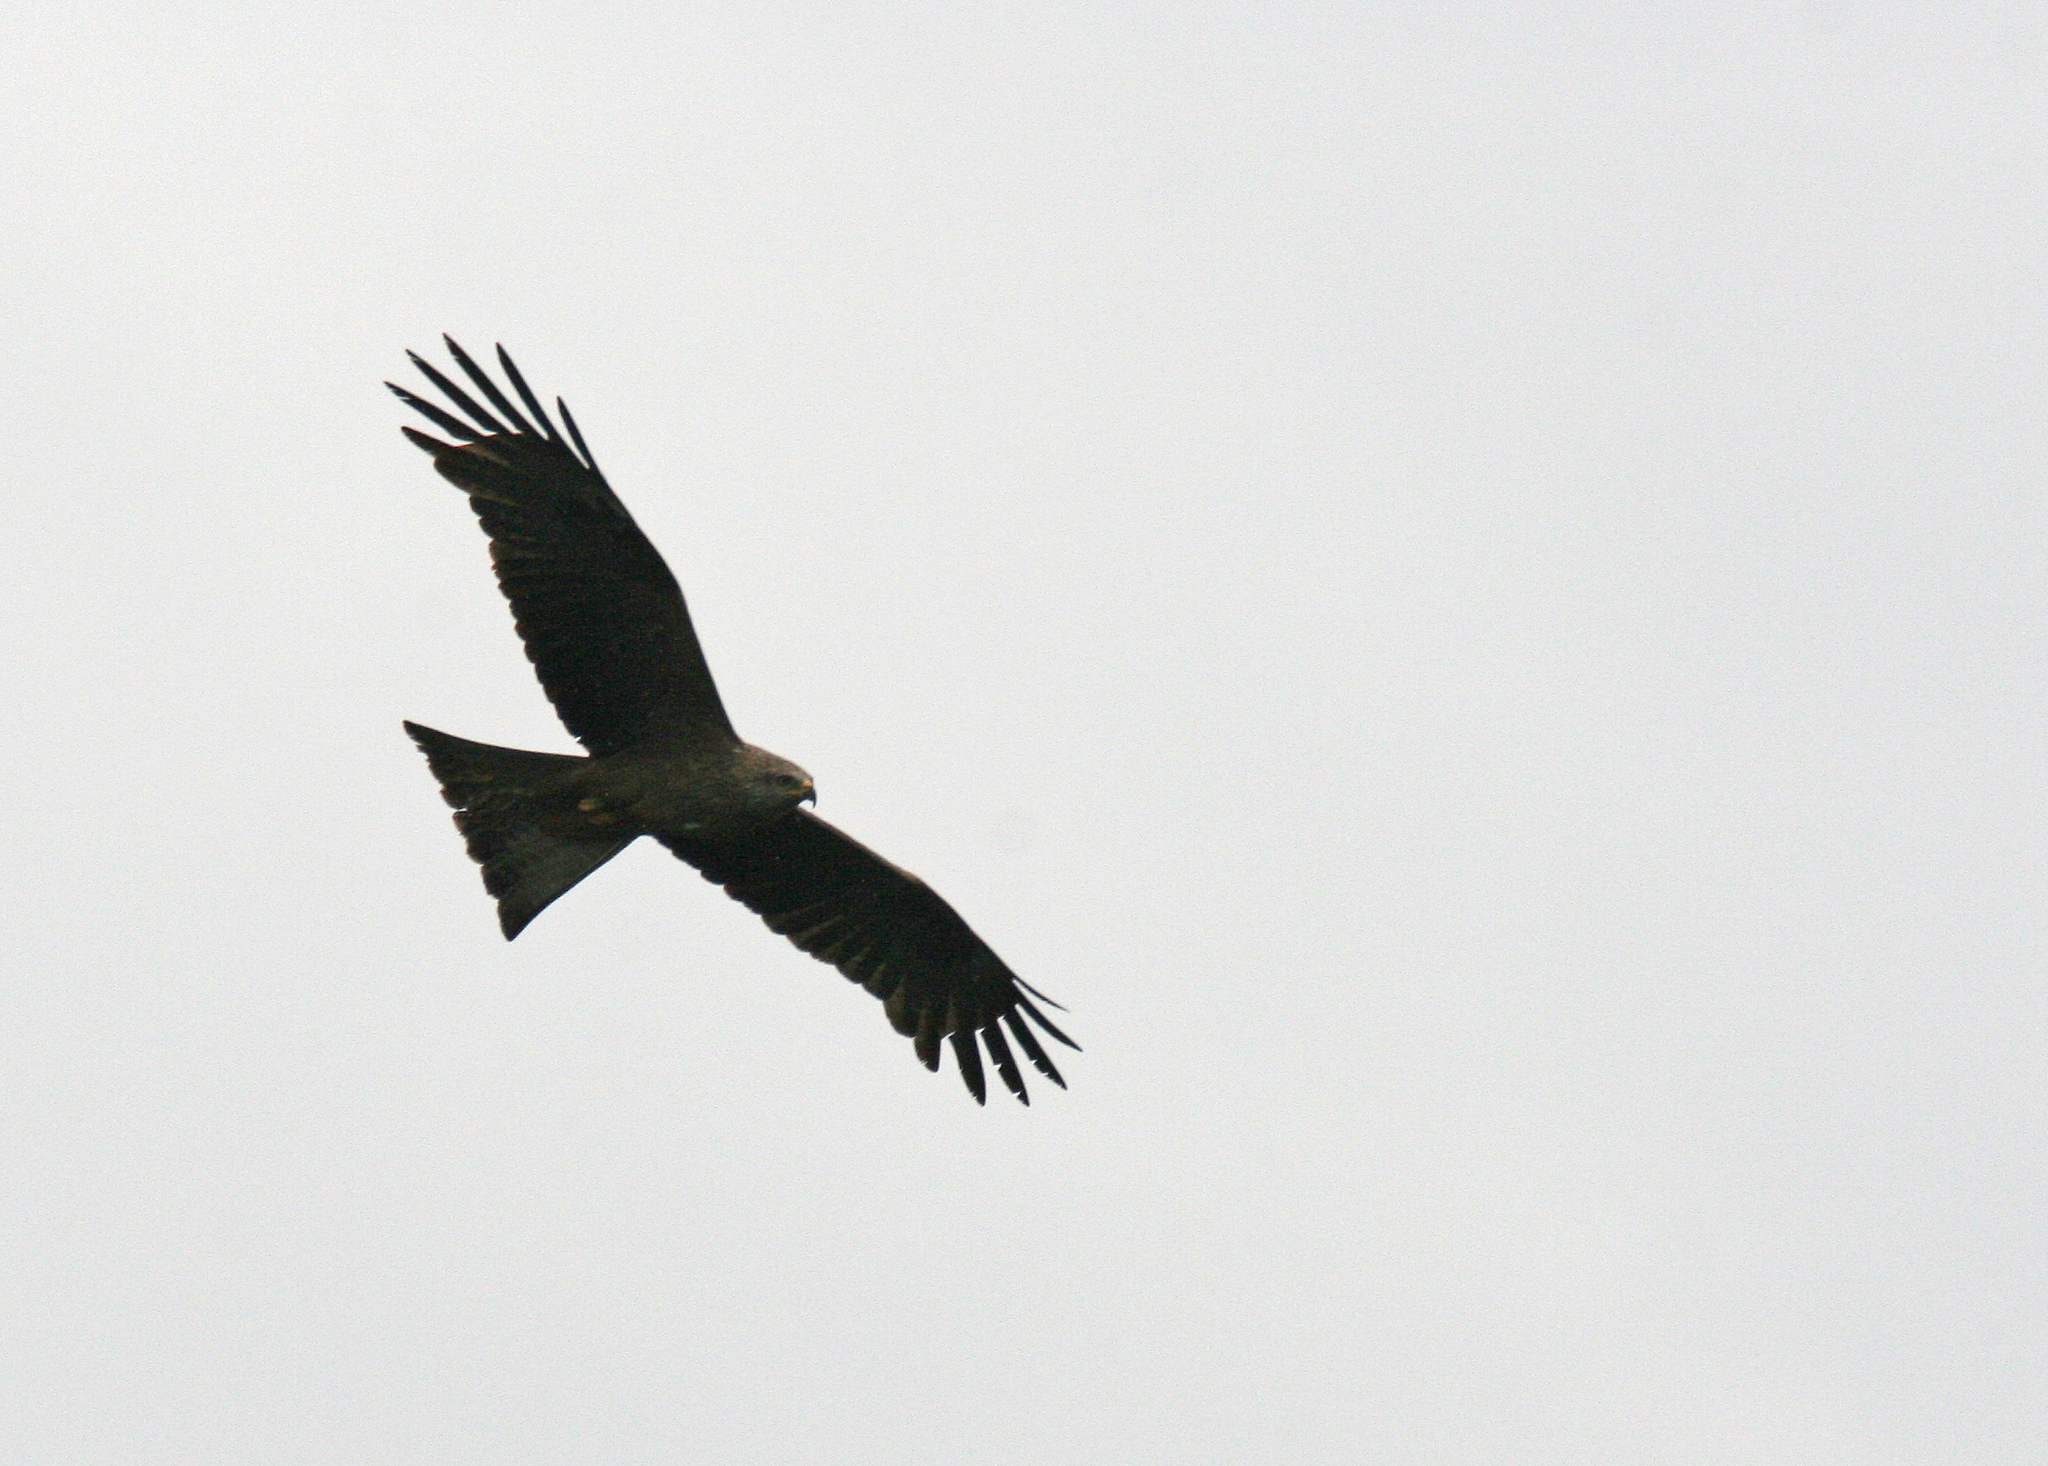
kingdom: Animalia
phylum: Chordata
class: Aves
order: Accipitriformes
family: Accipitridae
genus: Milvus
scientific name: Milvus migrans
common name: Black kite
